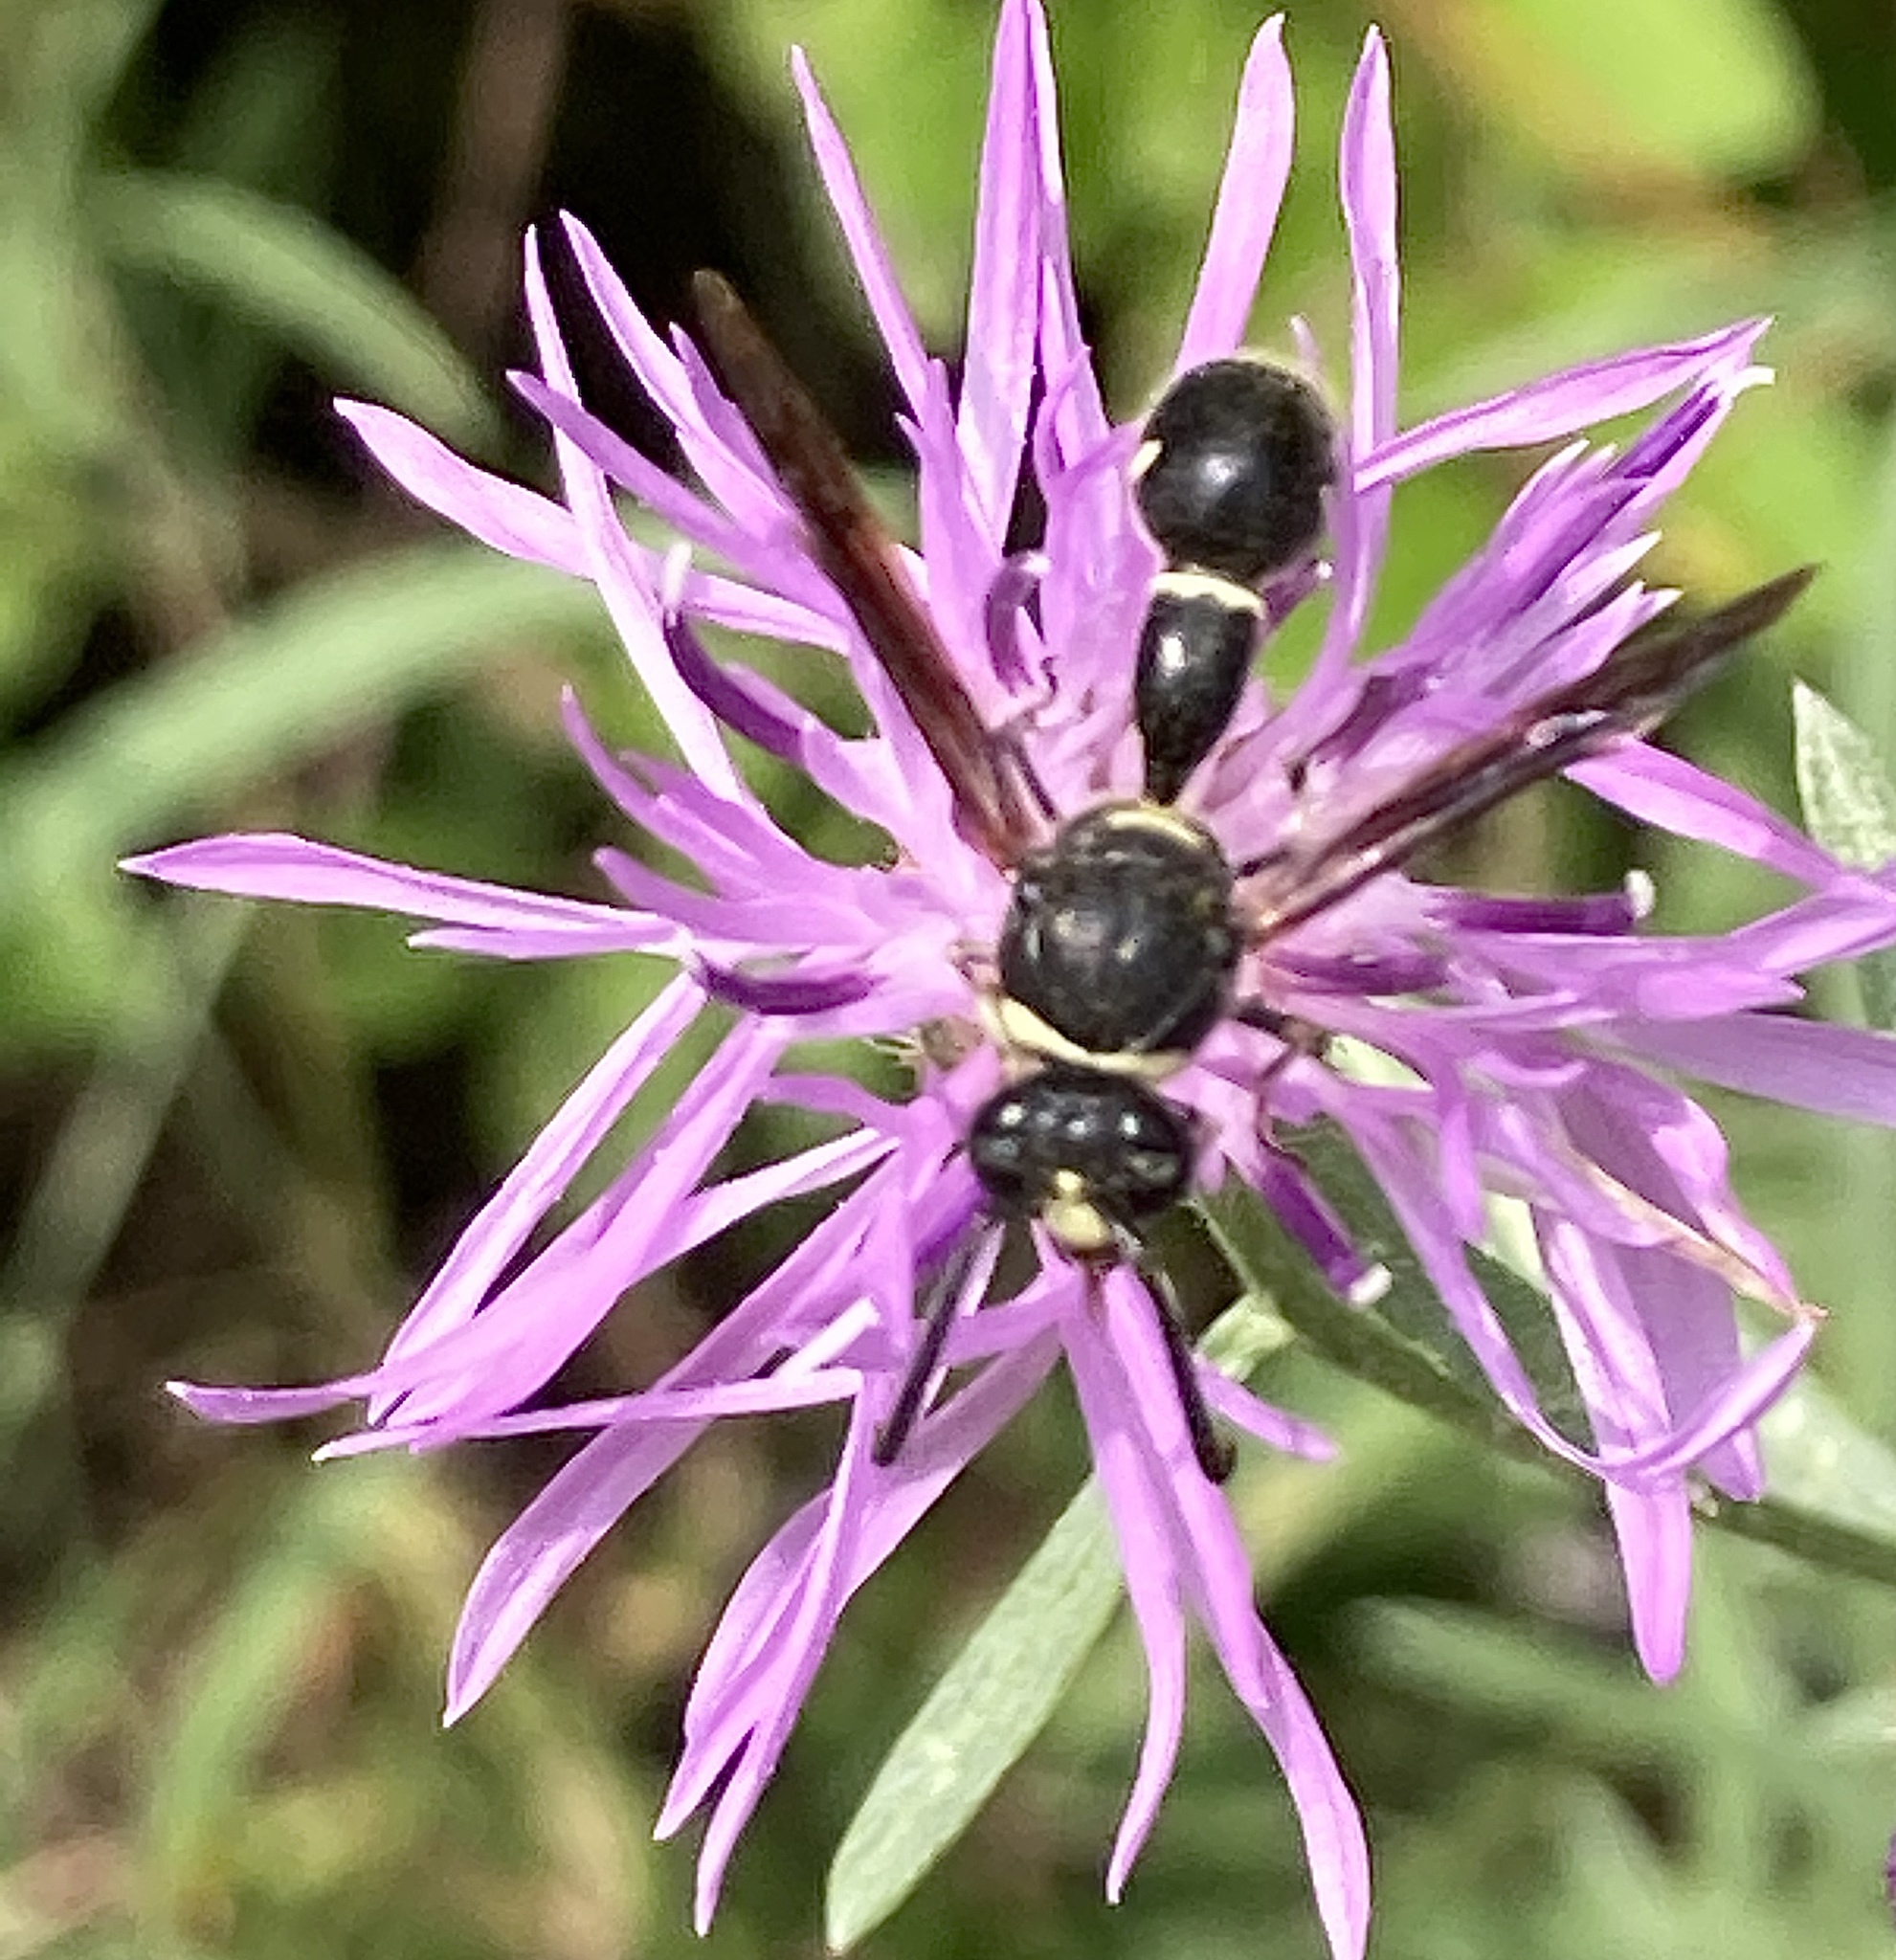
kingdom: Animalia
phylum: Arthropoda
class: Insecta
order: Hymenoptera
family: Vespidae
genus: Eumenes
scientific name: Eumenes fraternus
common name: Fraternal potter wasp
